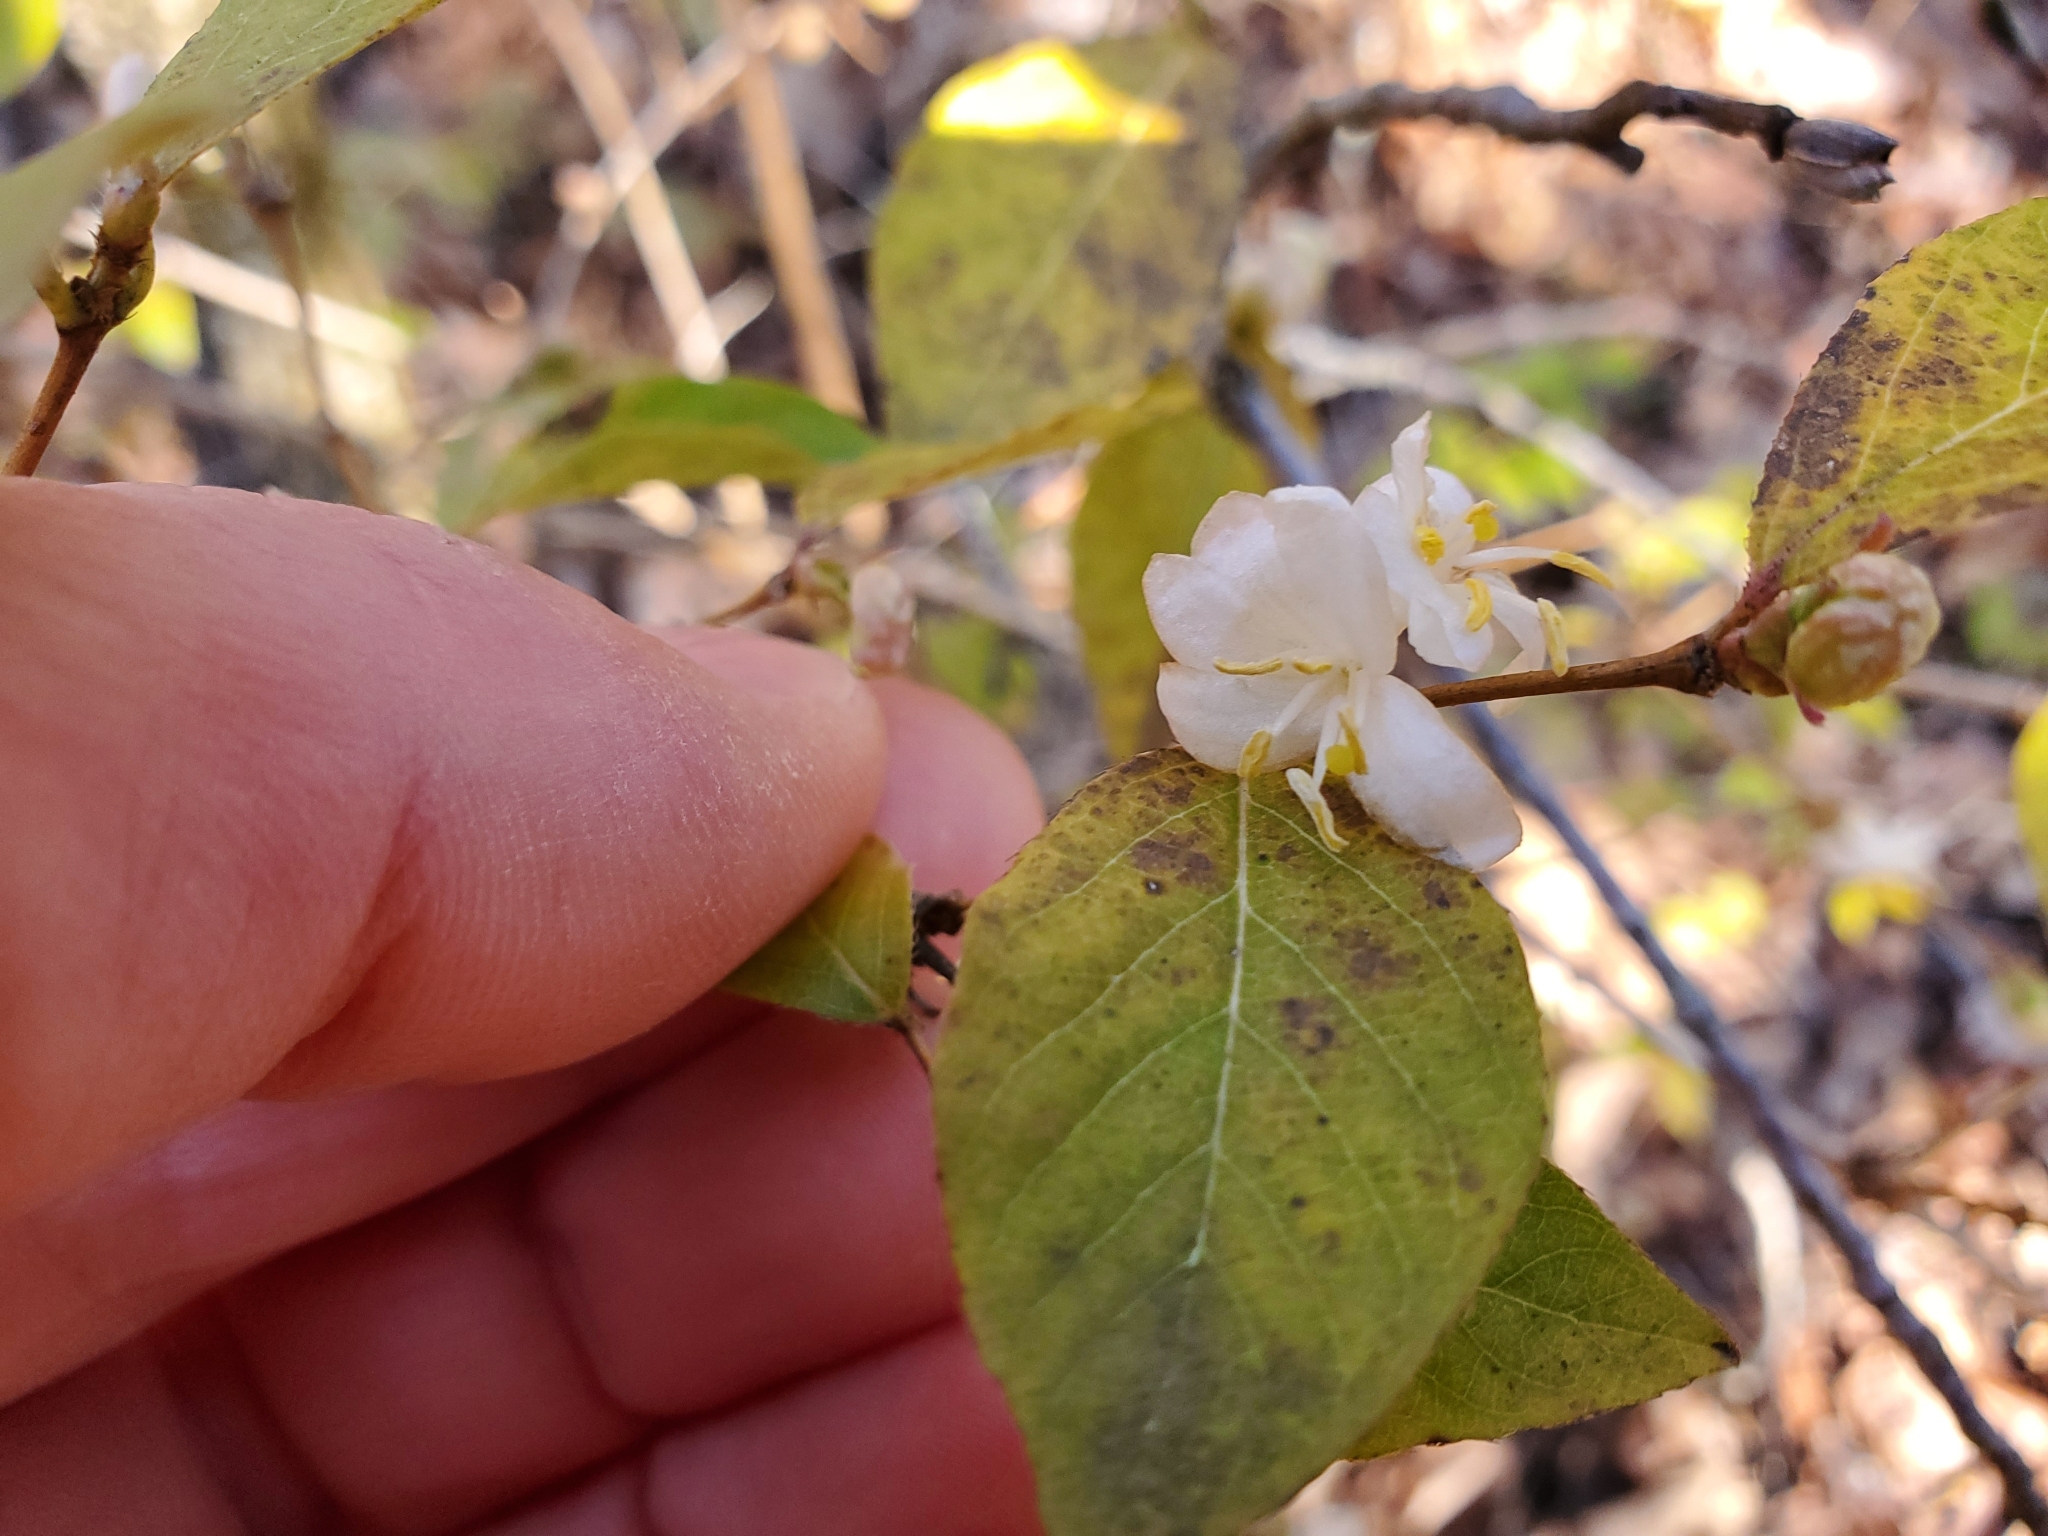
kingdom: Plantae
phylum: Tracheophyta
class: Magnoliopsida
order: Dipsacales
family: Caprifoliaceae
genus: Lonicera
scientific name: Lonicera fragrantissima
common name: Fragrant honeysuckle
